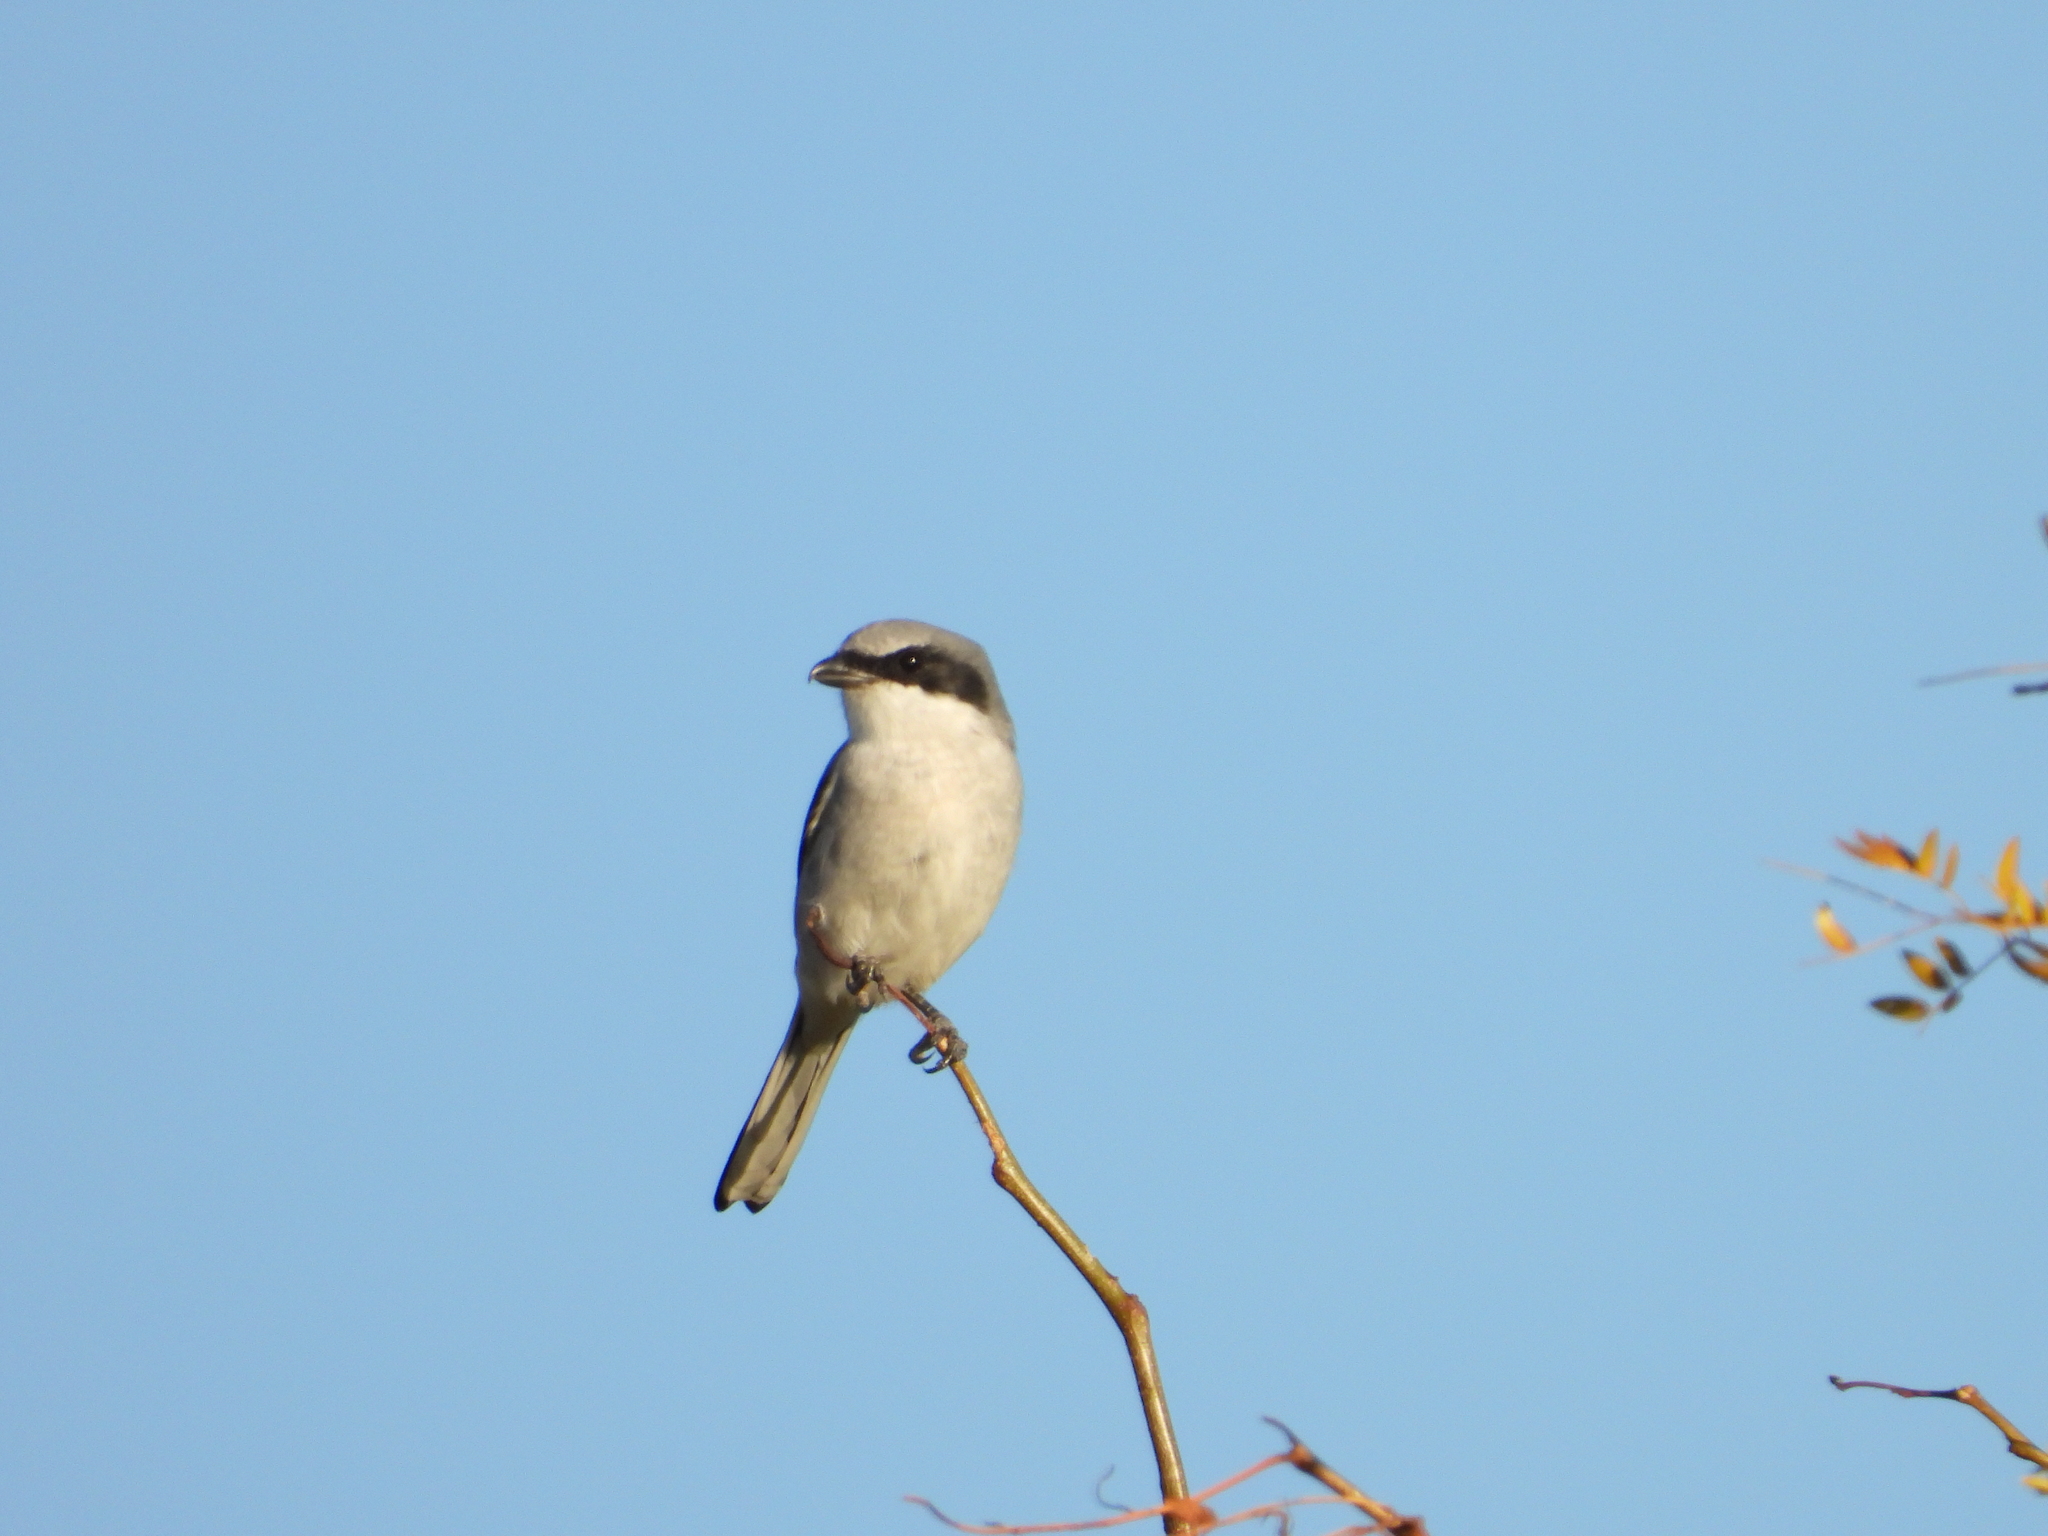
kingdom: Animalia
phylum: Chordata
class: Aves
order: Passeriformes
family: Laniidae
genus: Lanius
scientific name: Lanius ludovicianus
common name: Loggerhead shrike
